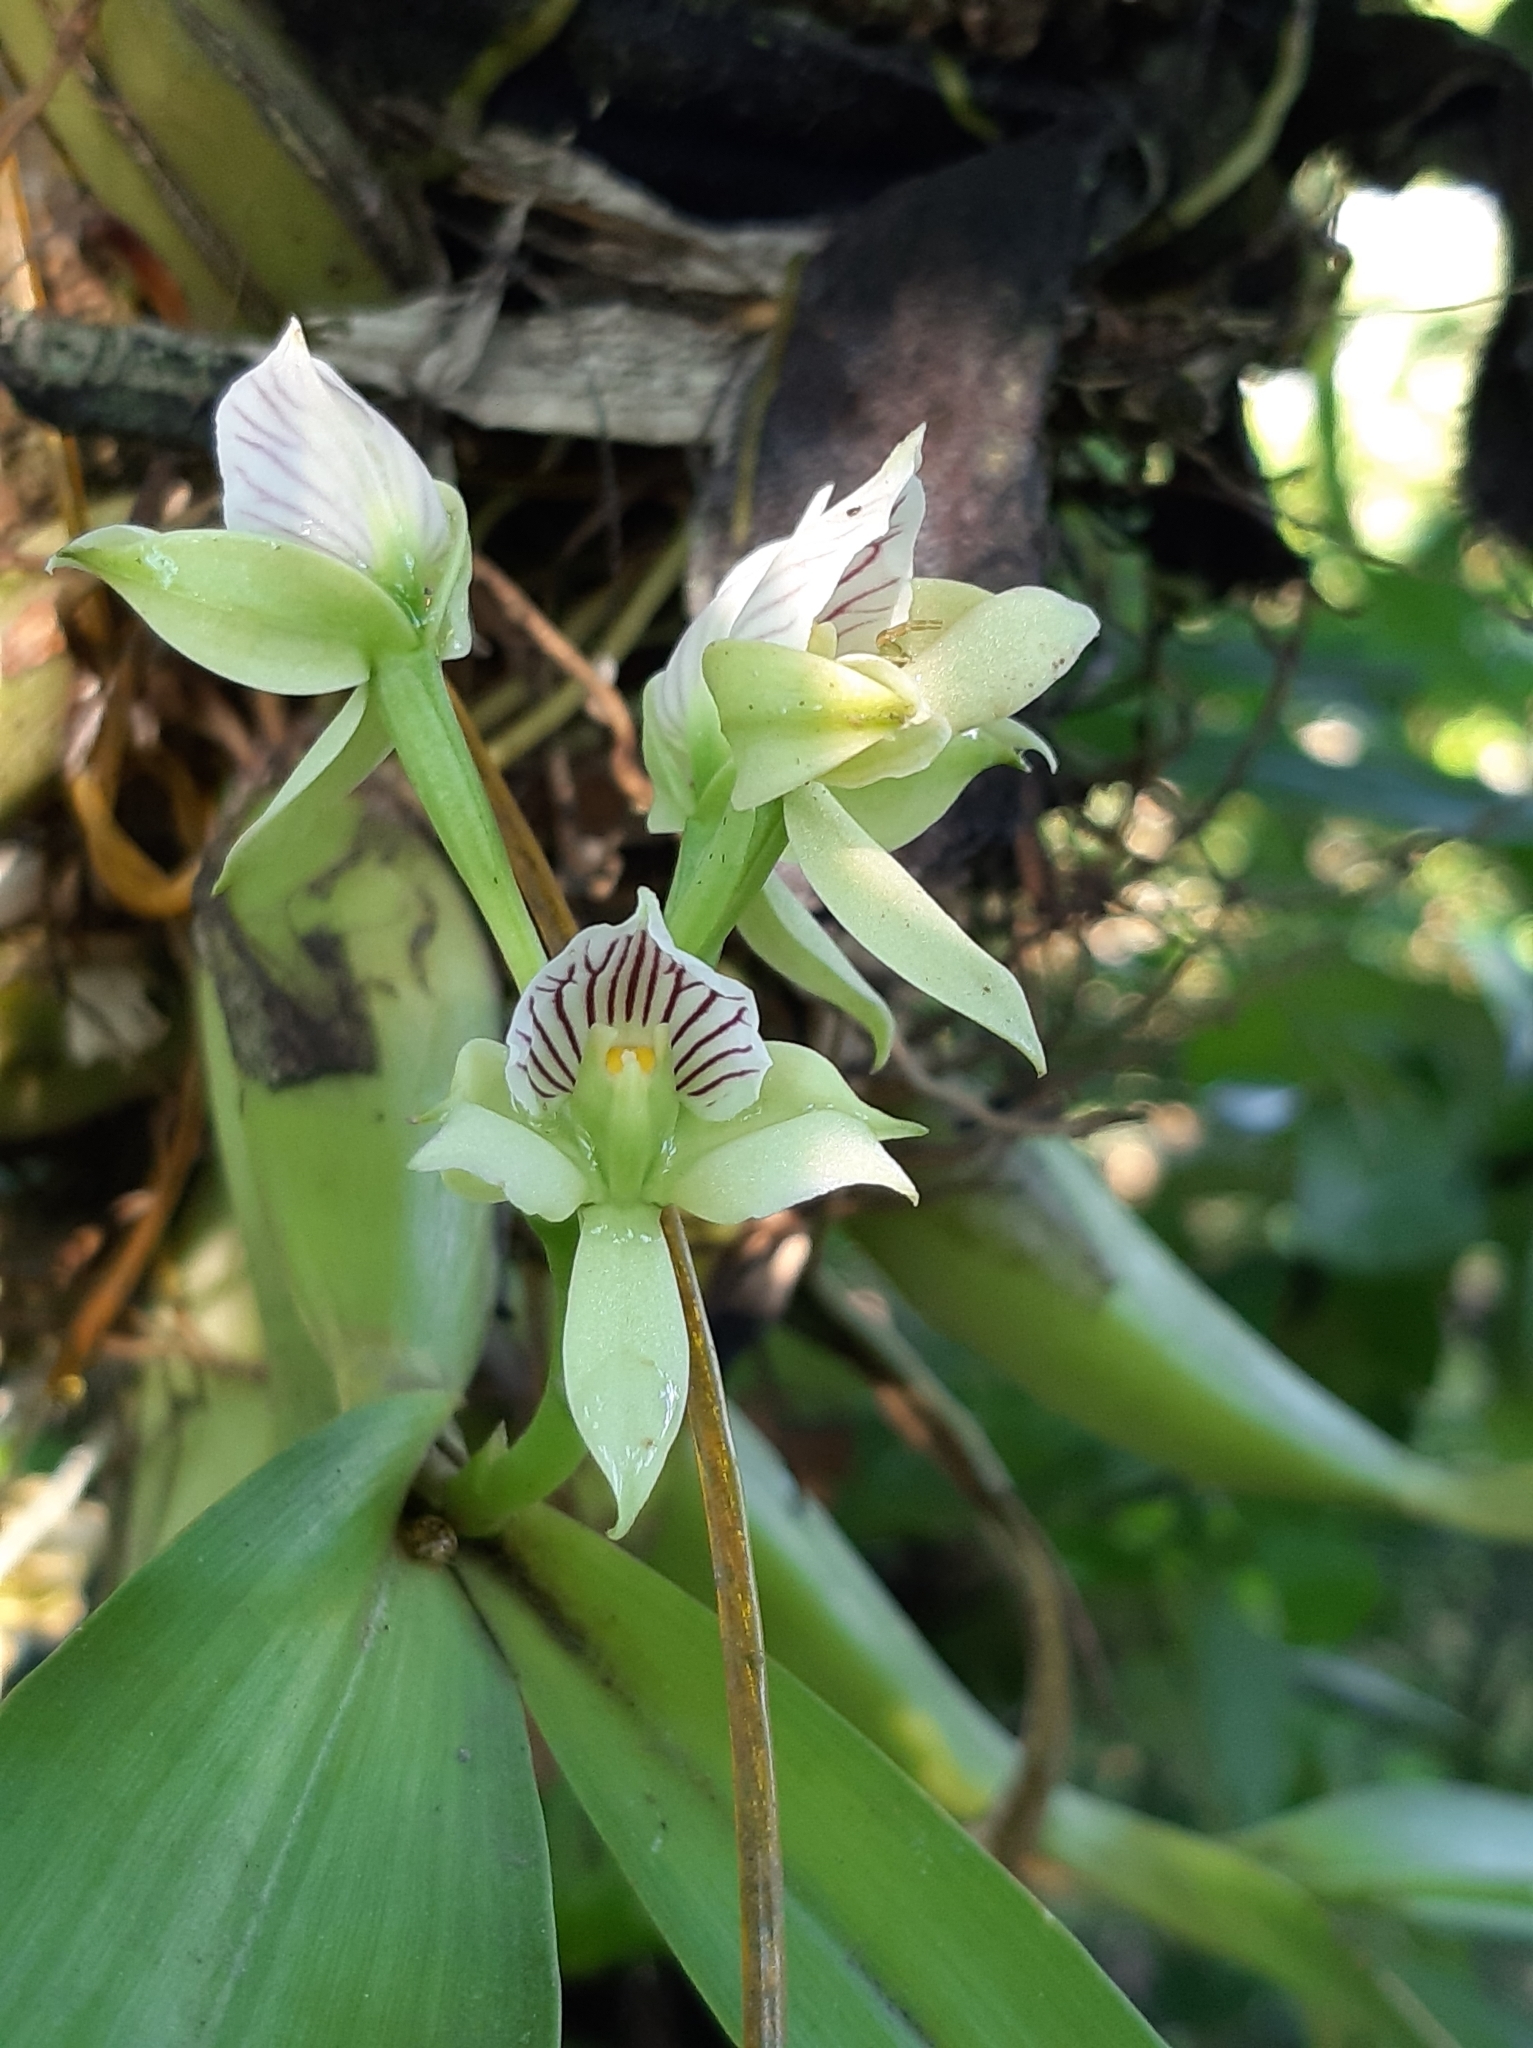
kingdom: Plantae
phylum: Tracheophyta
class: Liliopsida
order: Asparagales
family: Orchidaceae
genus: Prosthechea
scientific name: Prosthechea chacaoensis
